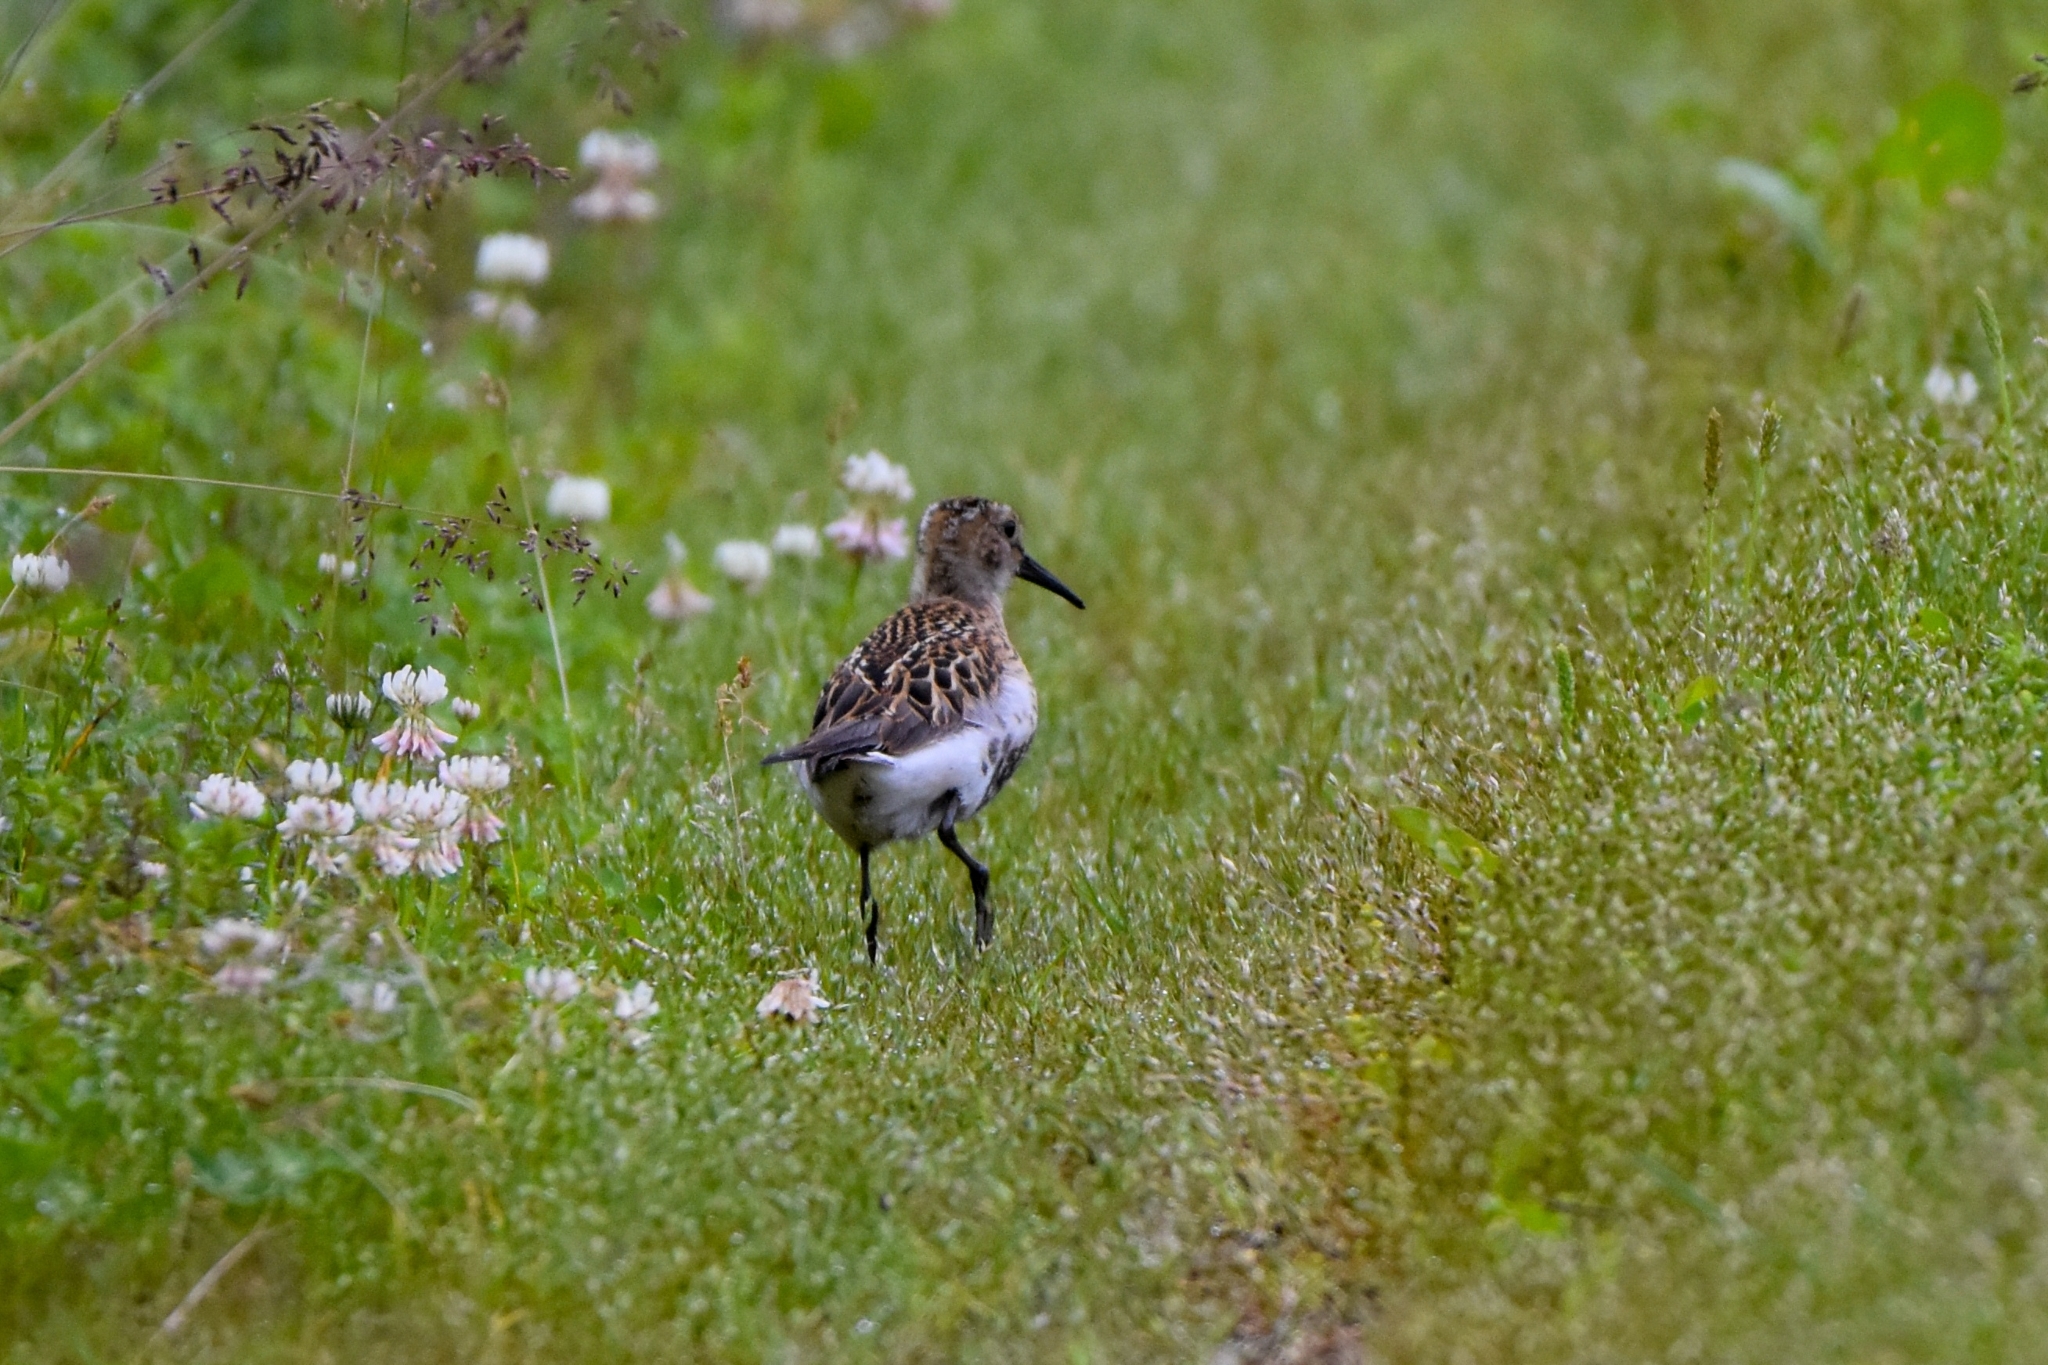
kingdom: Animalia
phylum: Chordata
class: Aves
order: Charadriiformes
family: Scolopacidae
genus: Calidris
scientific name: Calidris alpina
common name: Dunlin
